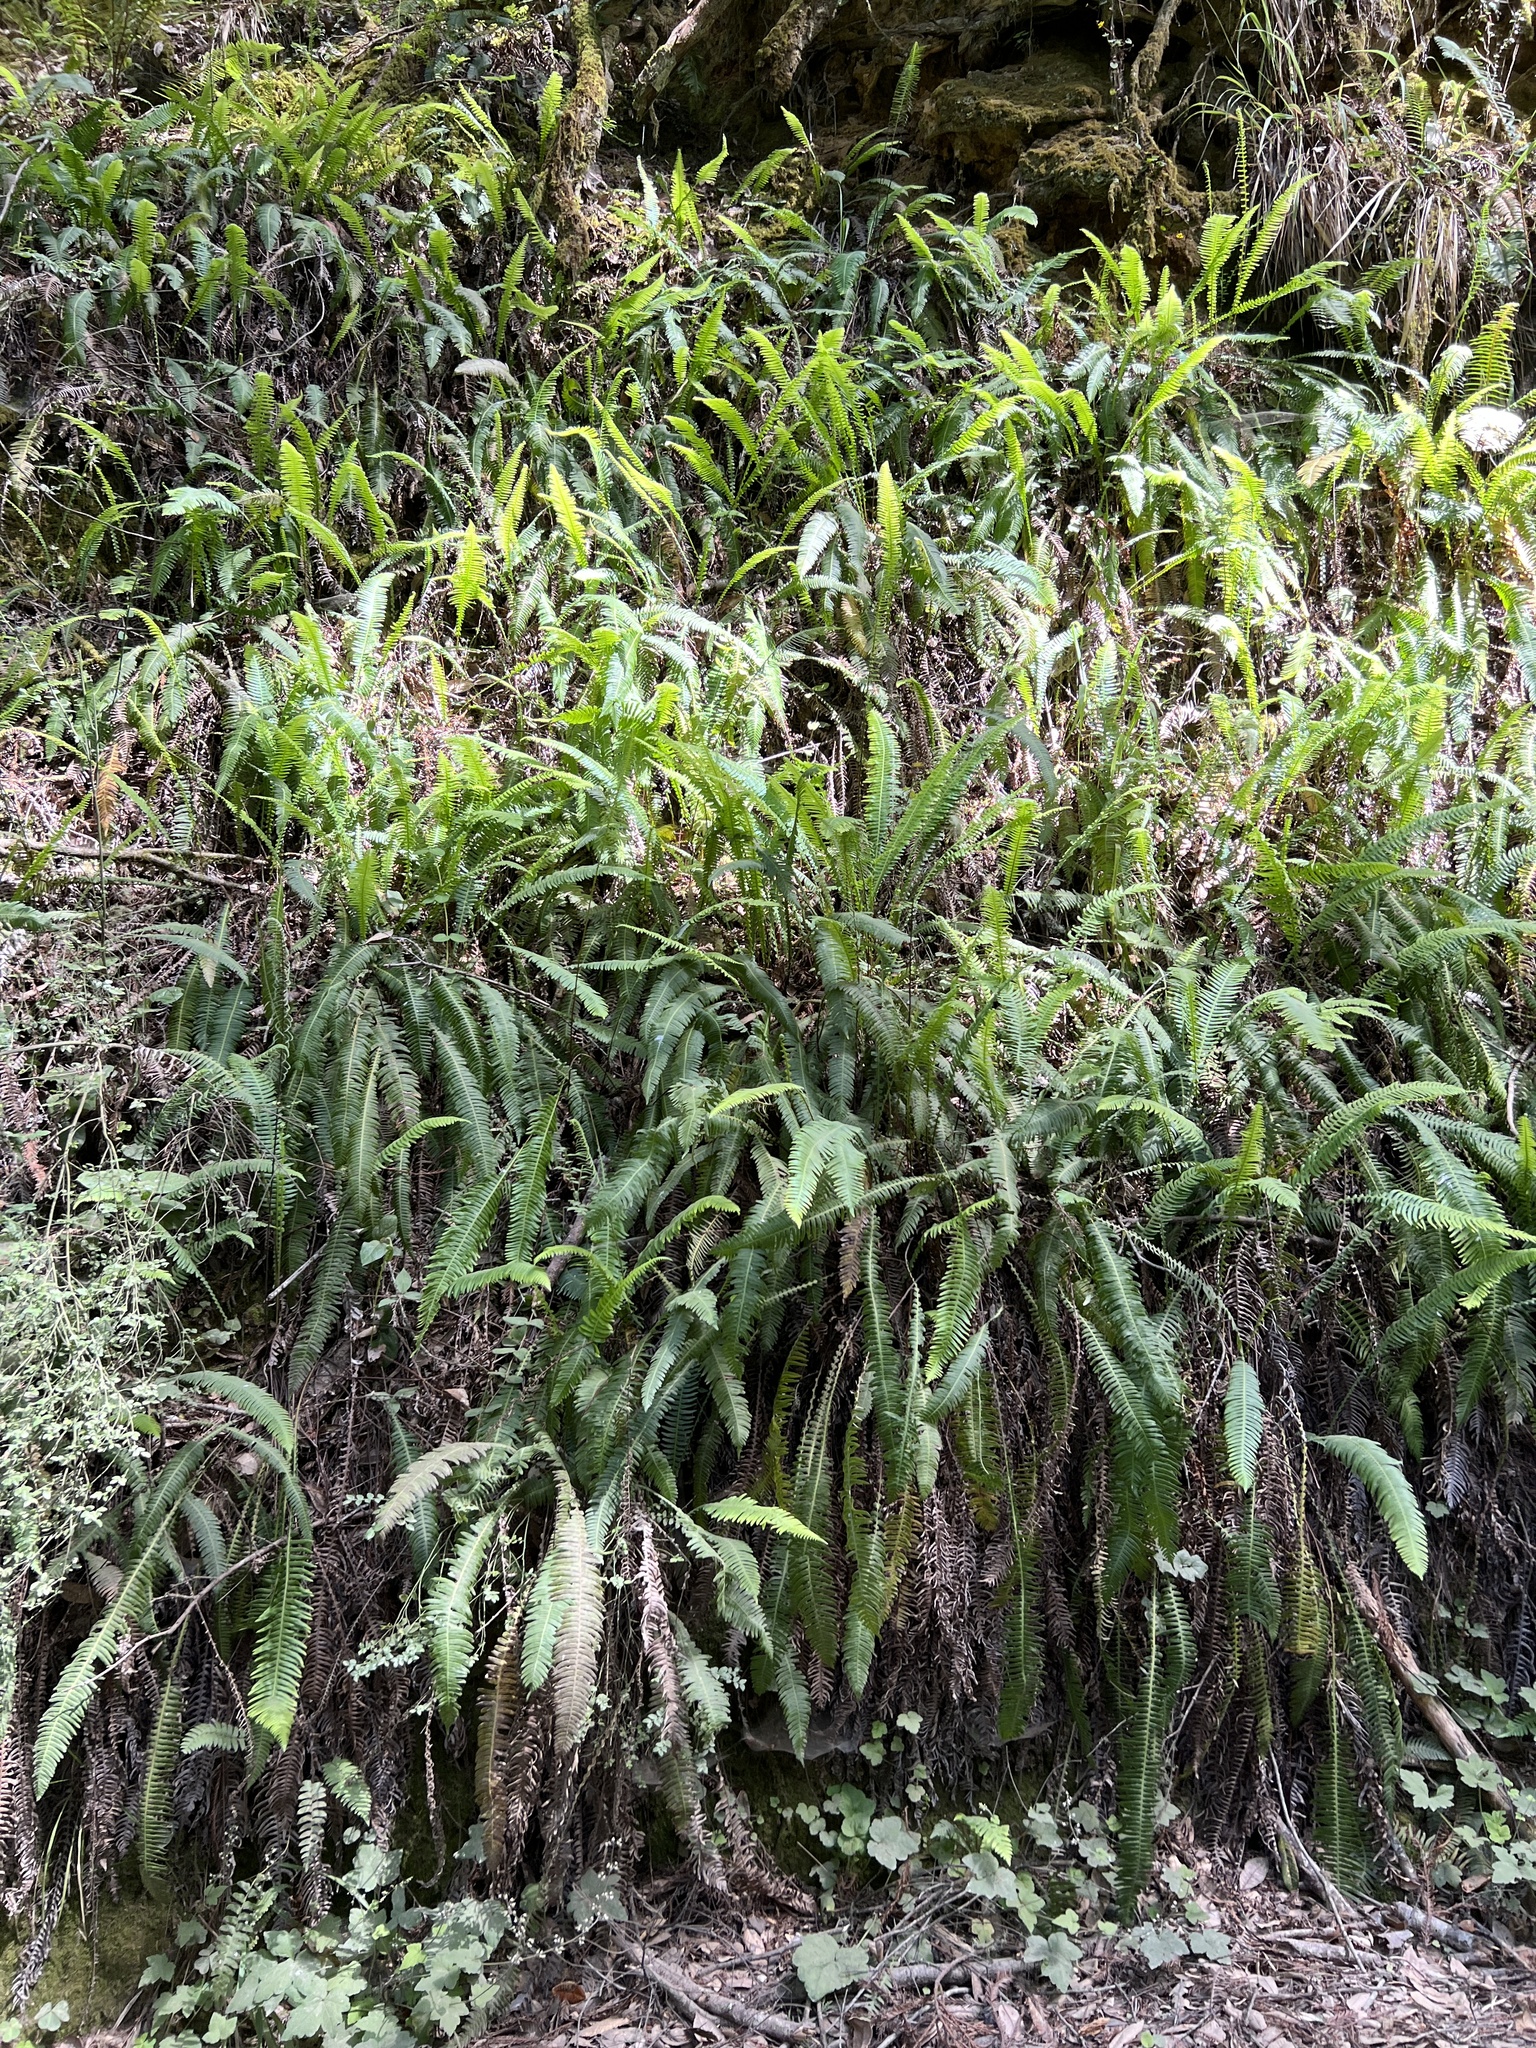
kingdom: Plantae
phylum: Tracheophyta
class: Polypodiopsida
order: Polypodiales
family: Blechnaceae
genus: Struthiopteris
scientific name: Struthiopteris spicant
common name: Deer fern
